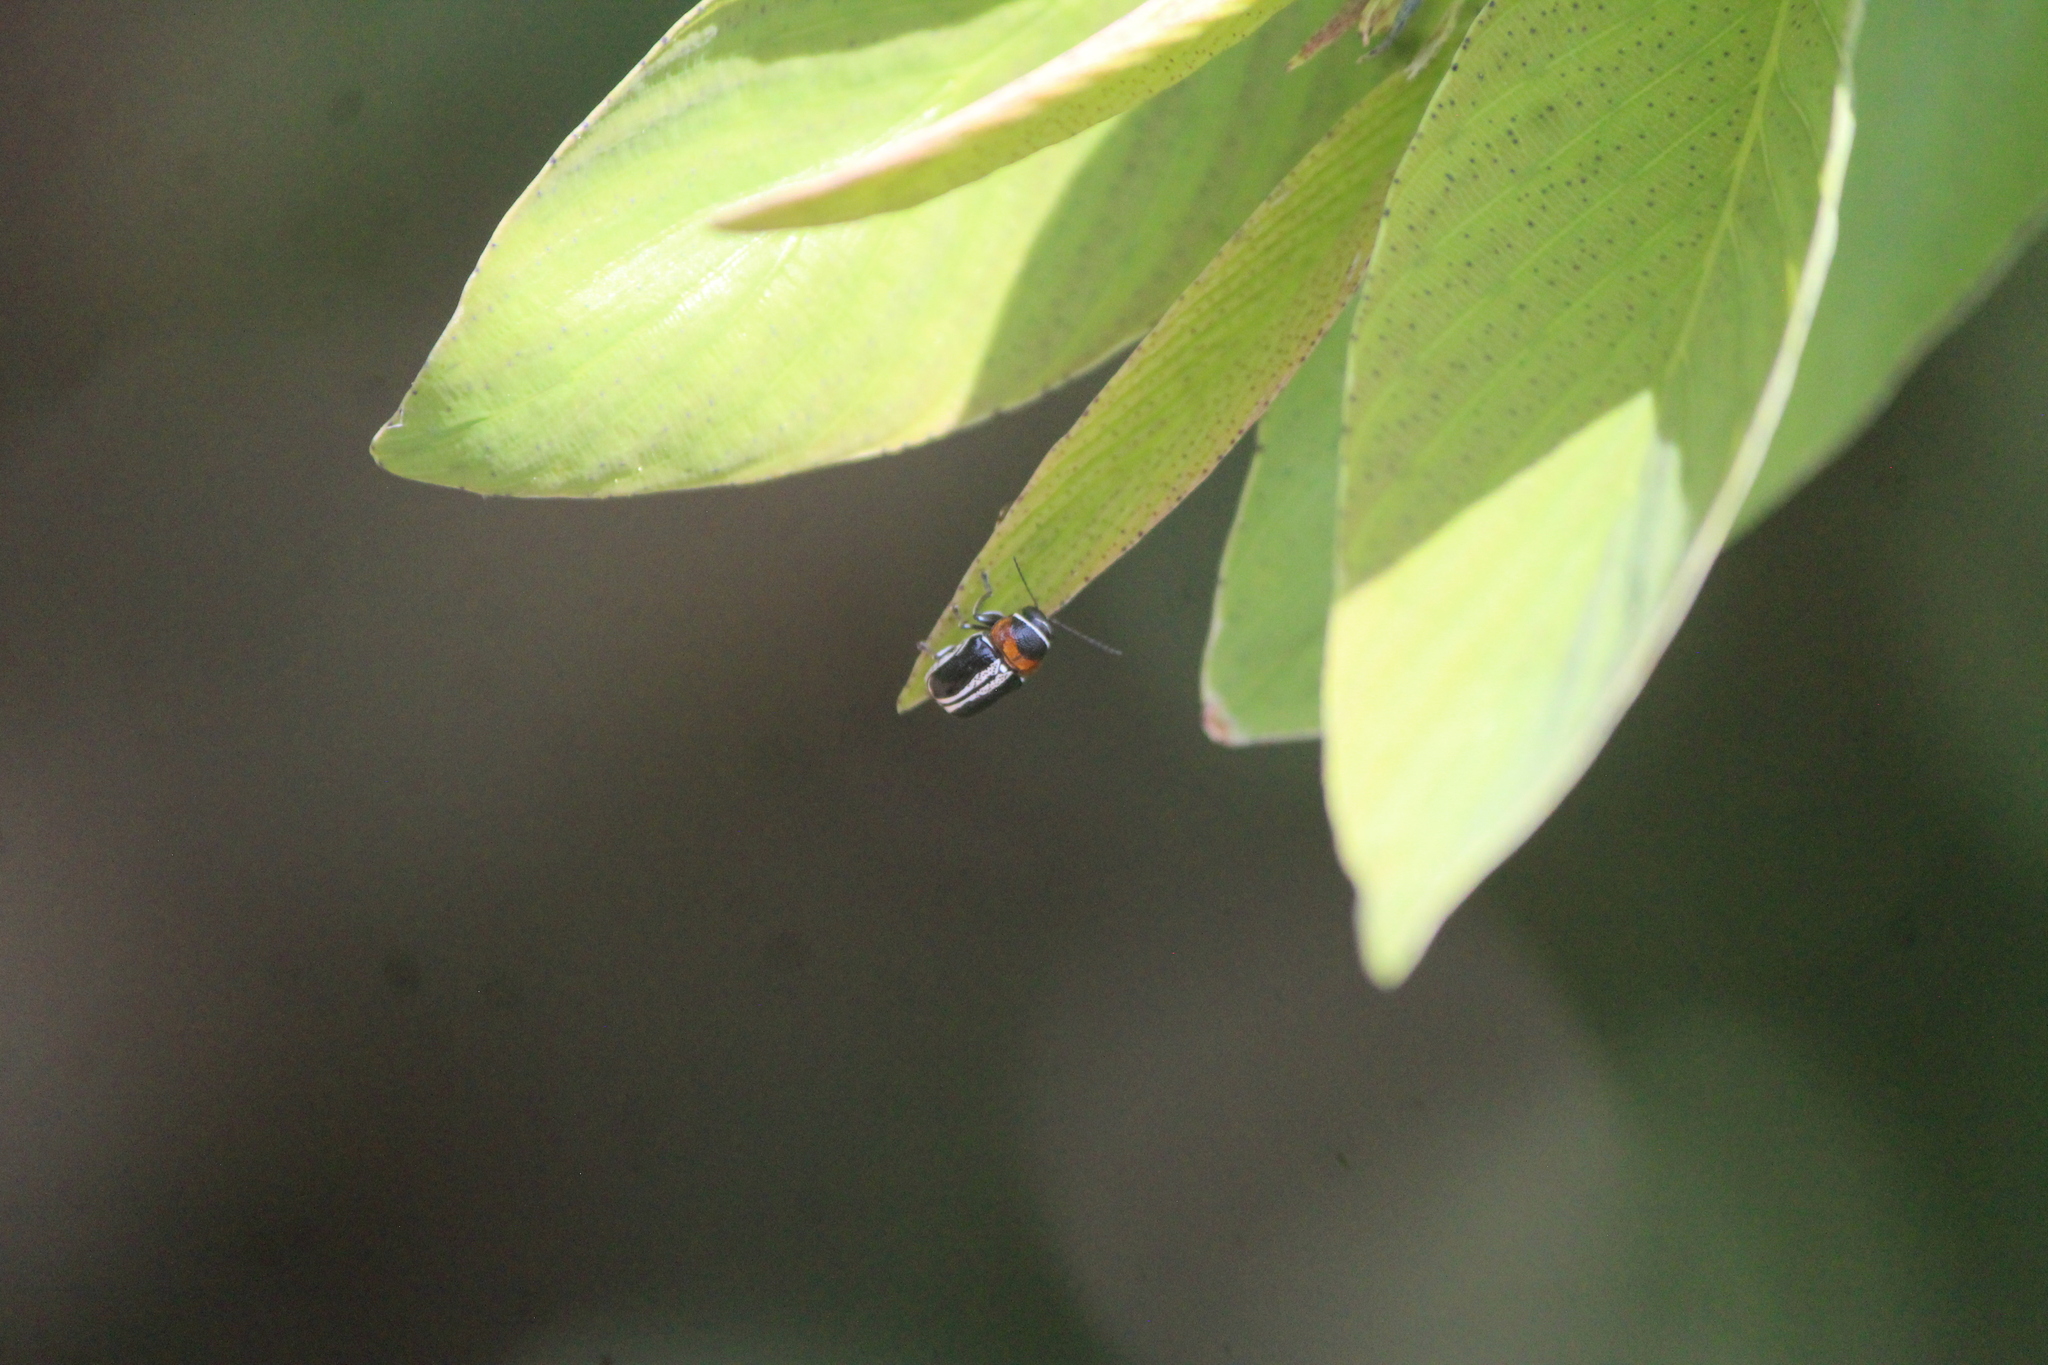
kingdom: Animalia
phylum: Arthropoda
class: Insecta
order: Coleoptera
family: Chrysomelidae
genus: Griburius
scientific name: Griburius montezuma
